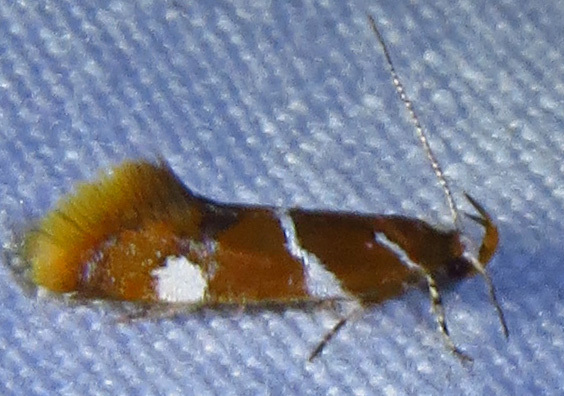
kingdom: Animalia
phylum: Arthropoda
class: Insecta
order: Lepidoptera
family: Oecophoridae
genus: Promalactis
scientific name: Promalactis suzukiella
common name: Moth
